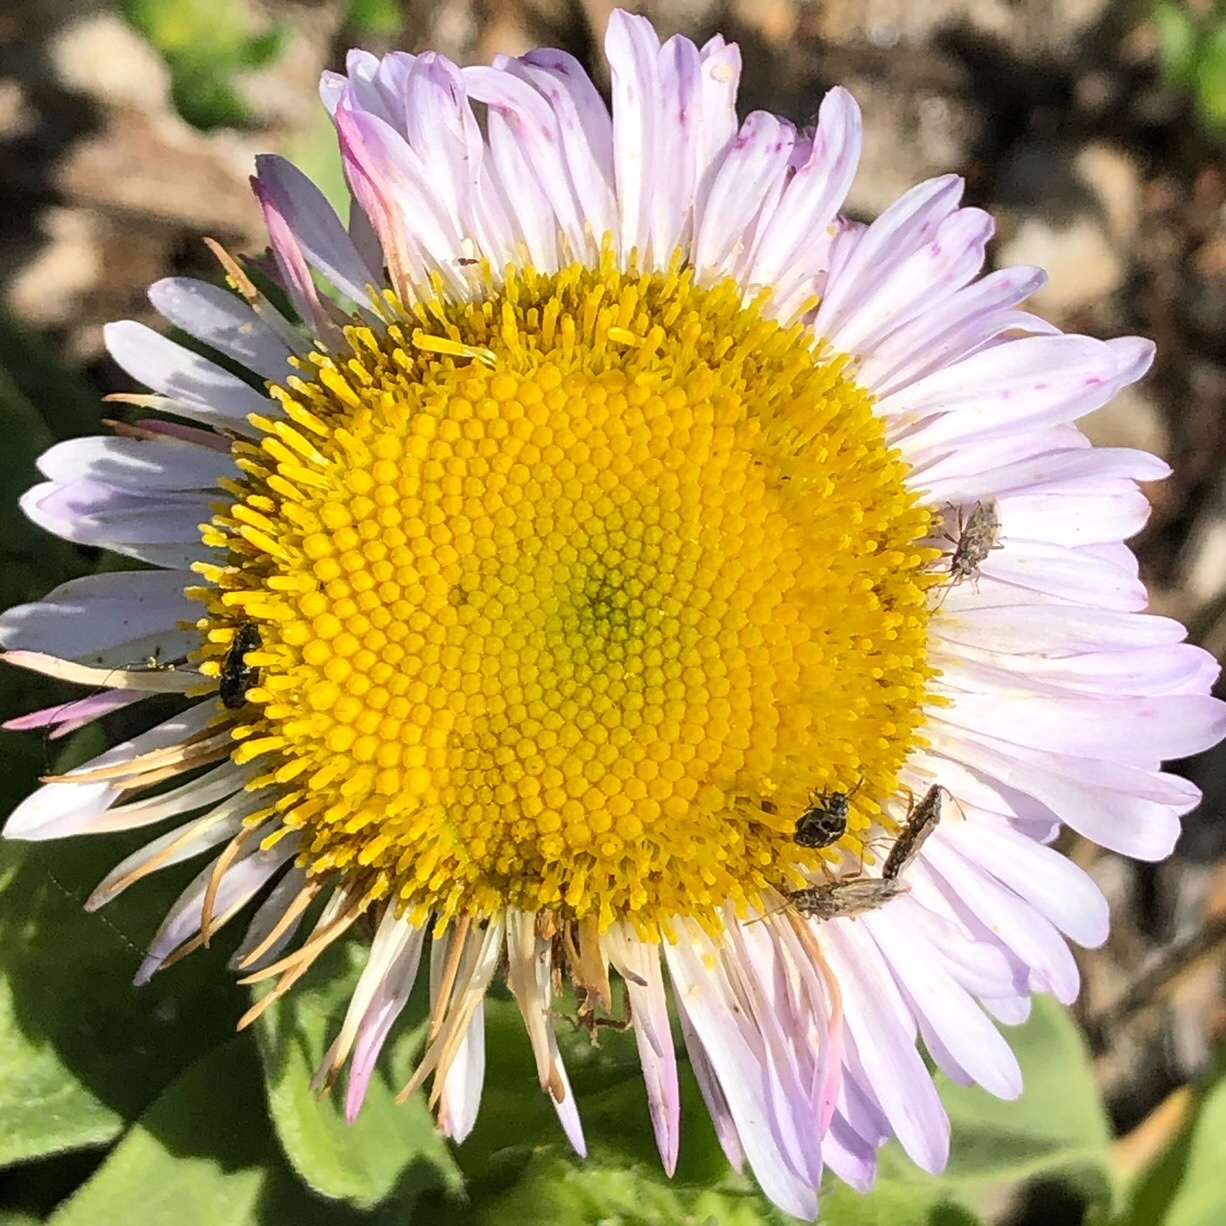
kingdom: Plantae
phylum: Tracheophyta
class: Magnoliopsida
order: Asterales
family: Asteraceae
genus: Erigeron
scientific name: Erigeron glaucus
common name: Seaside daisy
